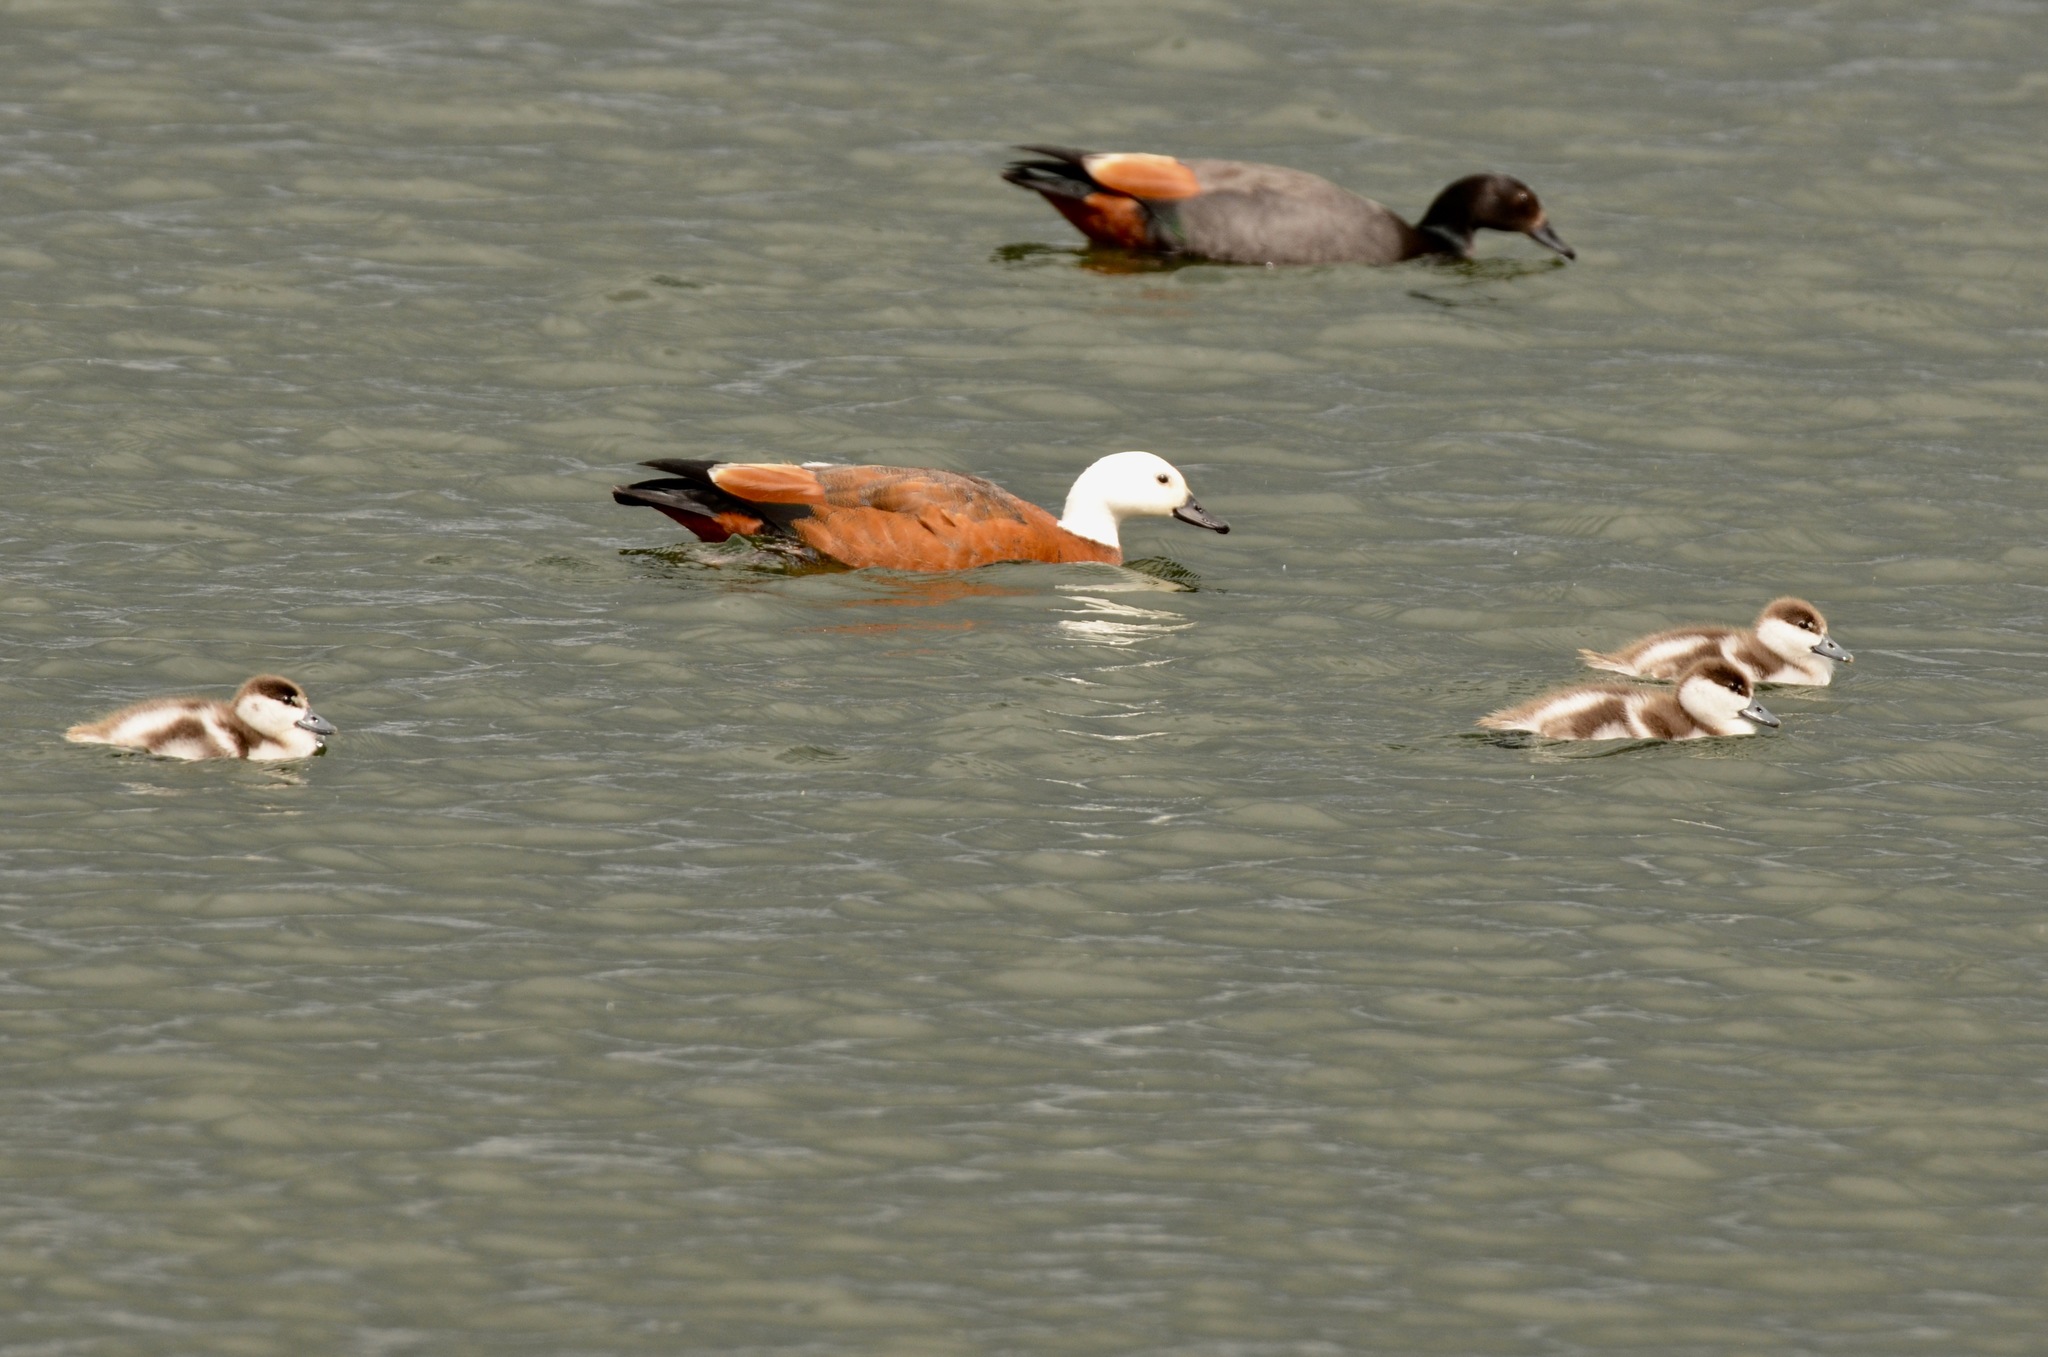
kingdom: Animalia
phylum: Chordata
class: Aves
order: Anseriformes
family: Anatidae
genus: Tadorna
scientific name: Tadorna variegata
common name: Paradise shelduck
